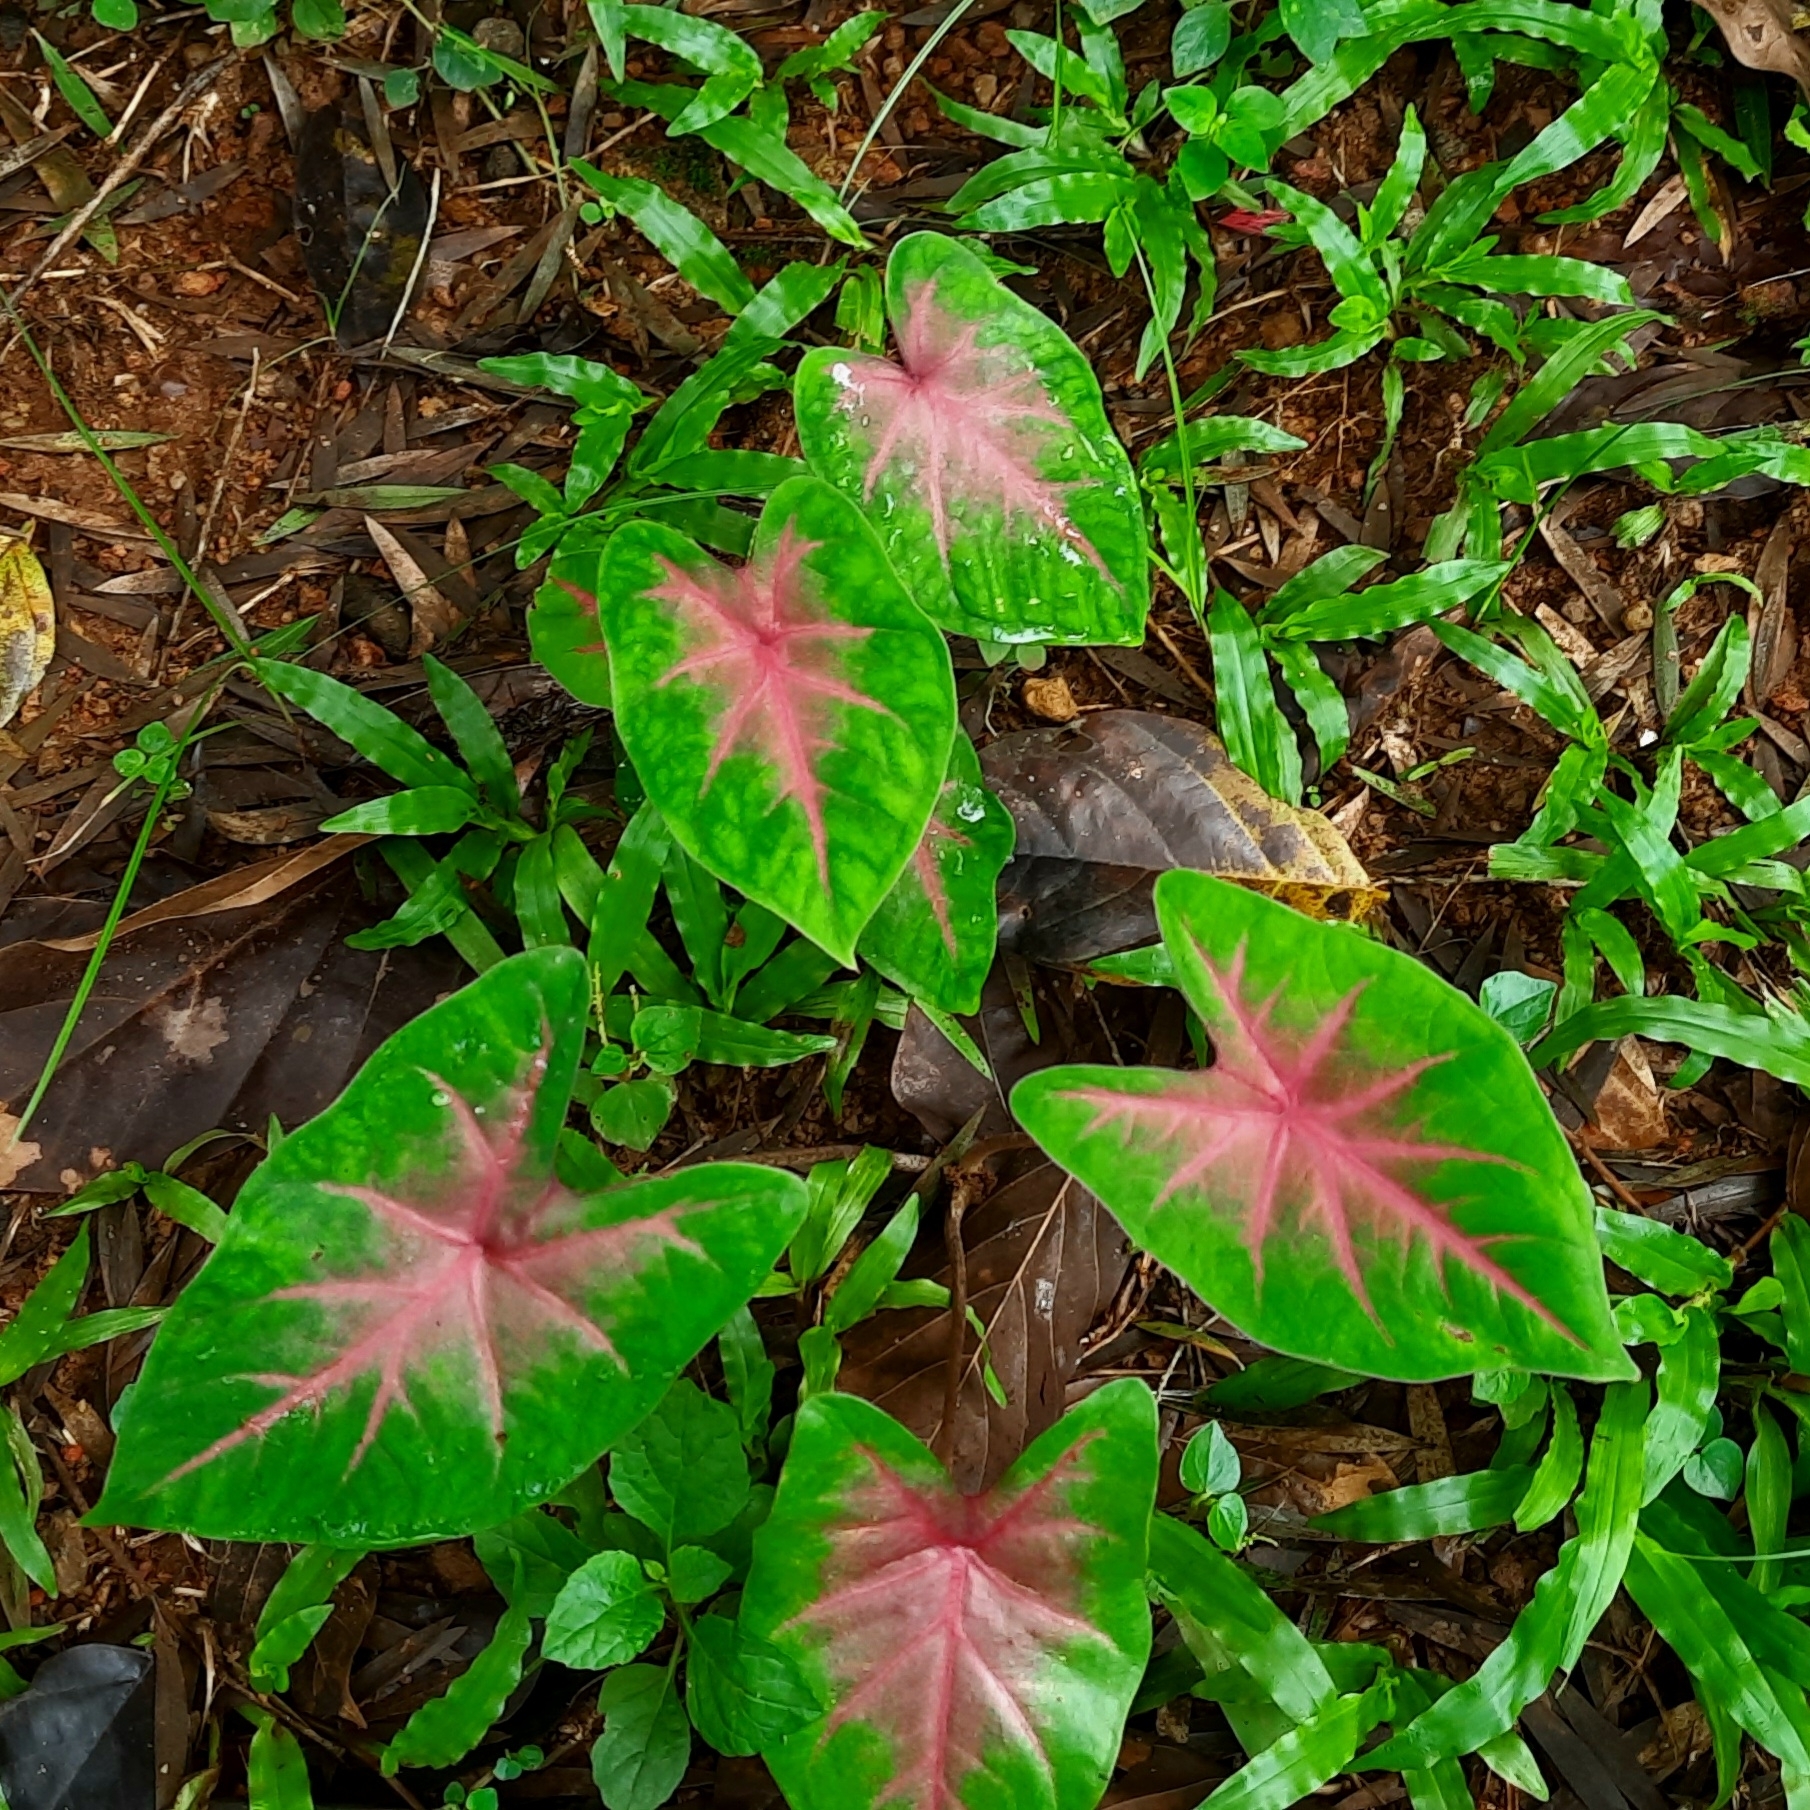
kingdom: Plantae
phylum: Tracheophyta
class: Liliopsida
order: Alismatales
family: Araceae
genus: Caladium
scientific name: Caladium bicolor
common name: Artist's pallet
